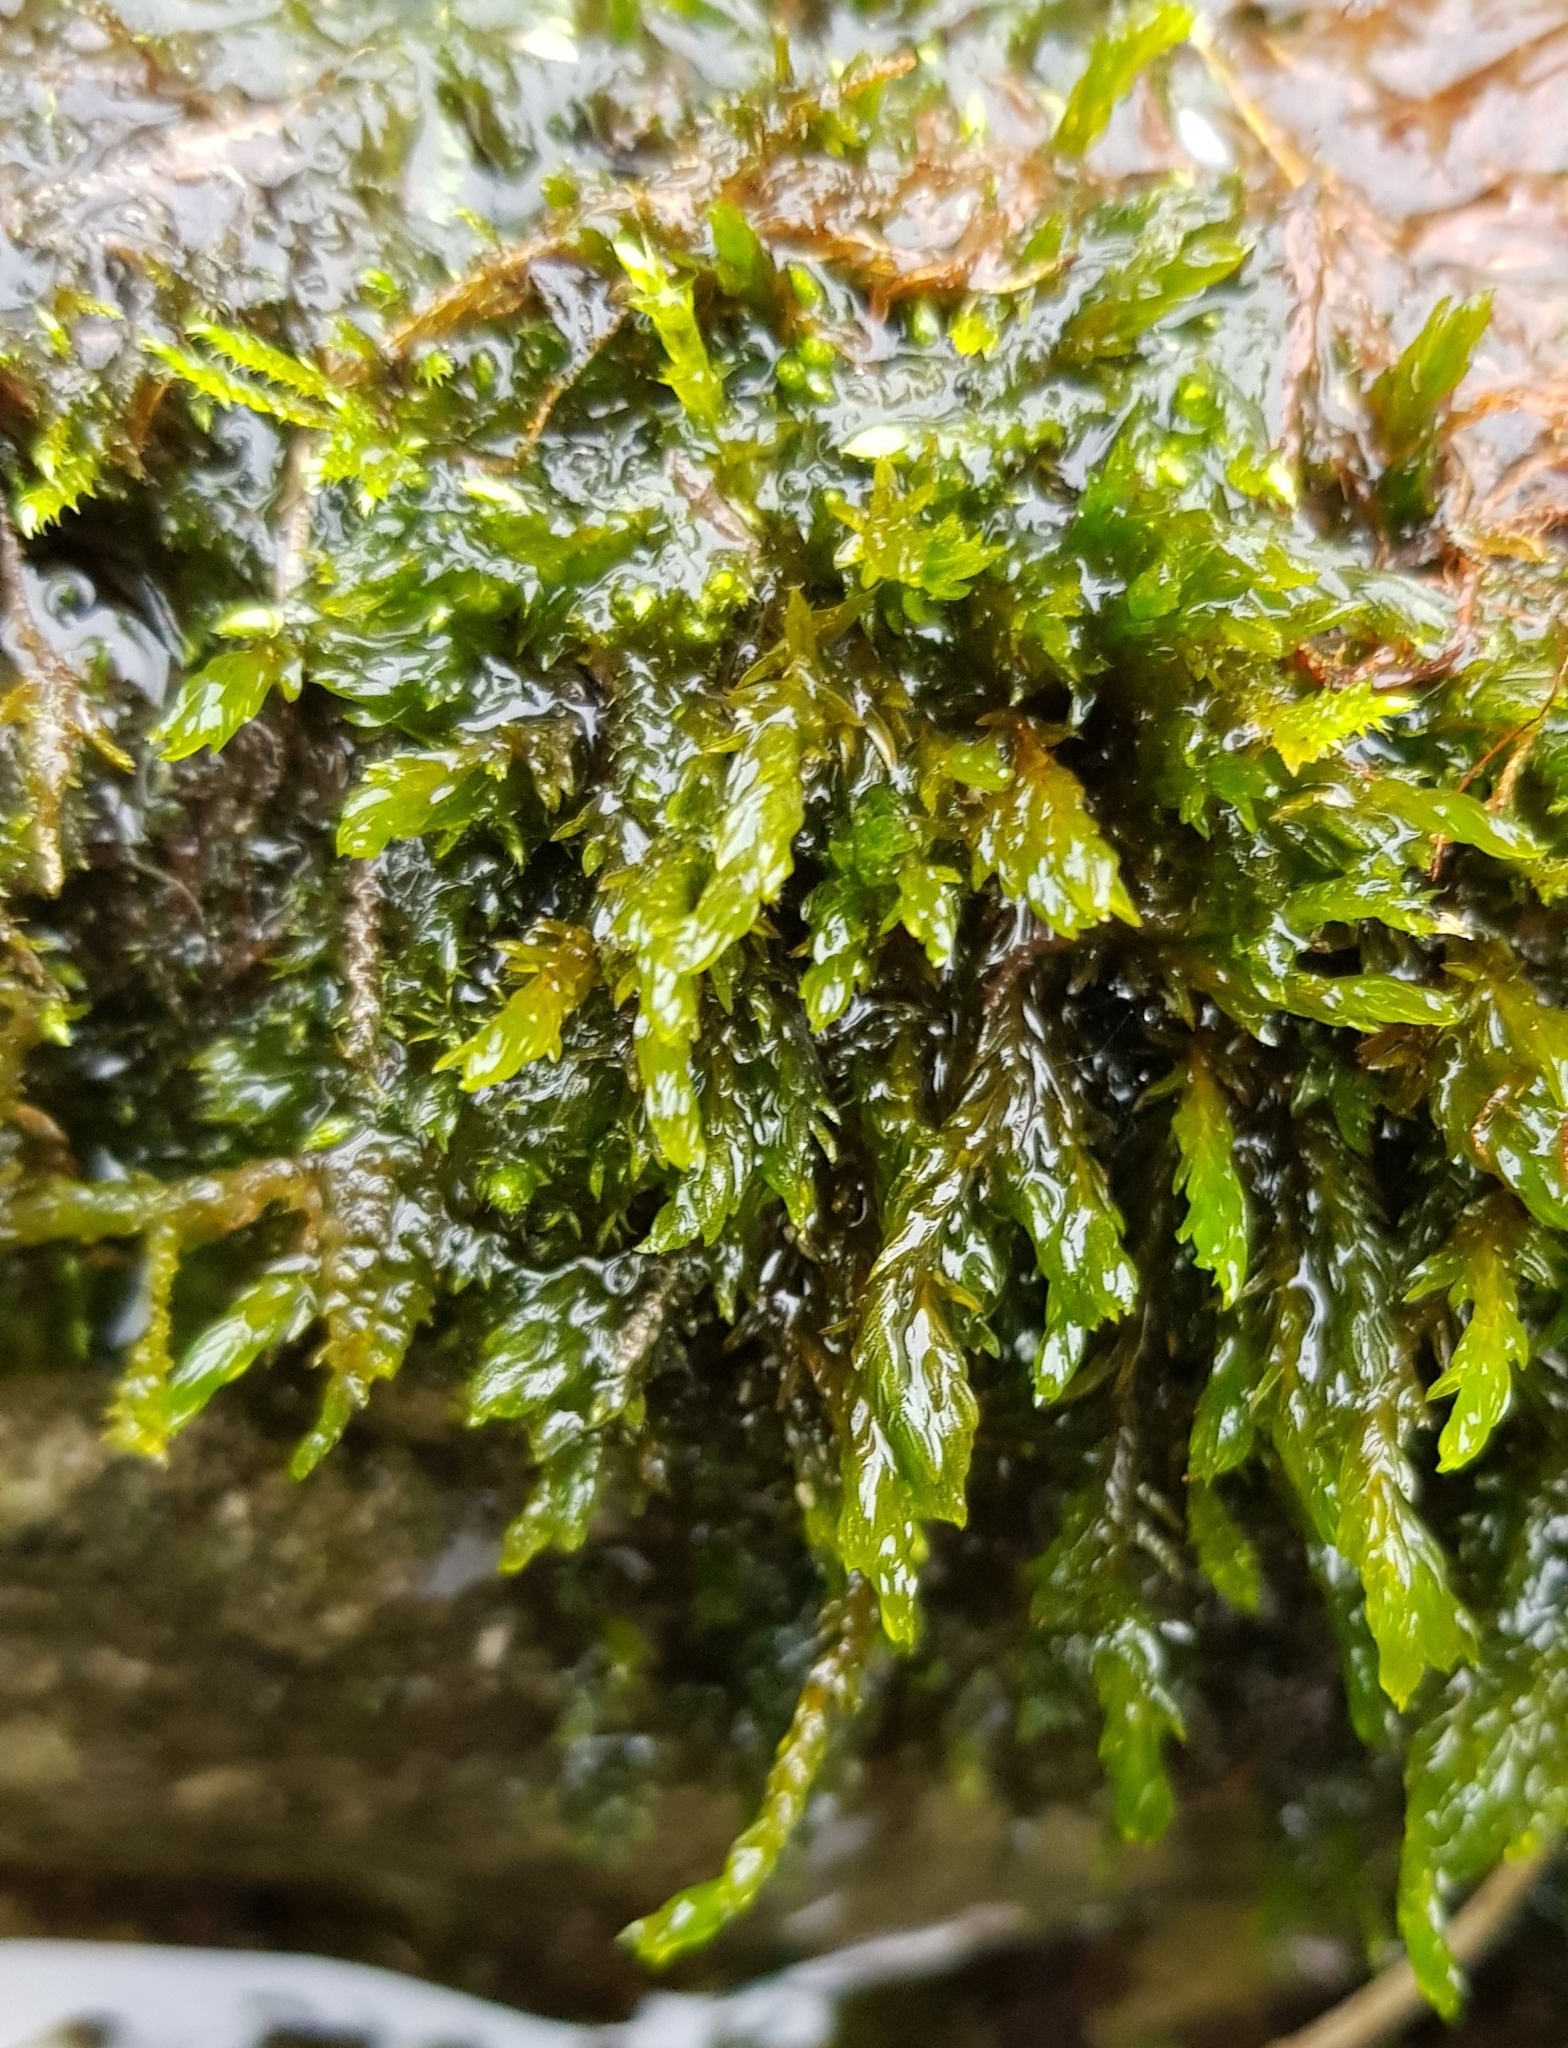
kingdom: Plantae
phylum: Bryophyta
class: Bryopsida
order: Pottiales
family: Pottiaceae
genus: Cinclidotus
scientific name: Cinclidotus fontinaloides
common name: Smaller lattice-moss
